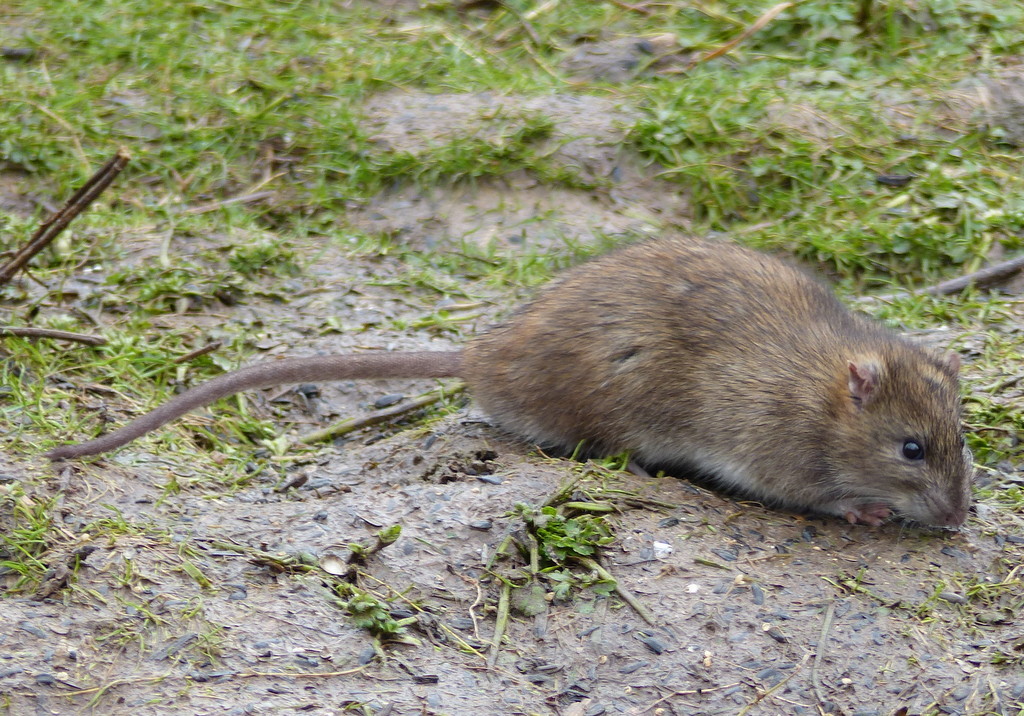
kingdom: Animalia
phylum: Chordata
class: Mammalia
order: Rodentia
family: Muridae
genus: Rattus
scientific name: Rattus norvegicus
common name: Brown rat
